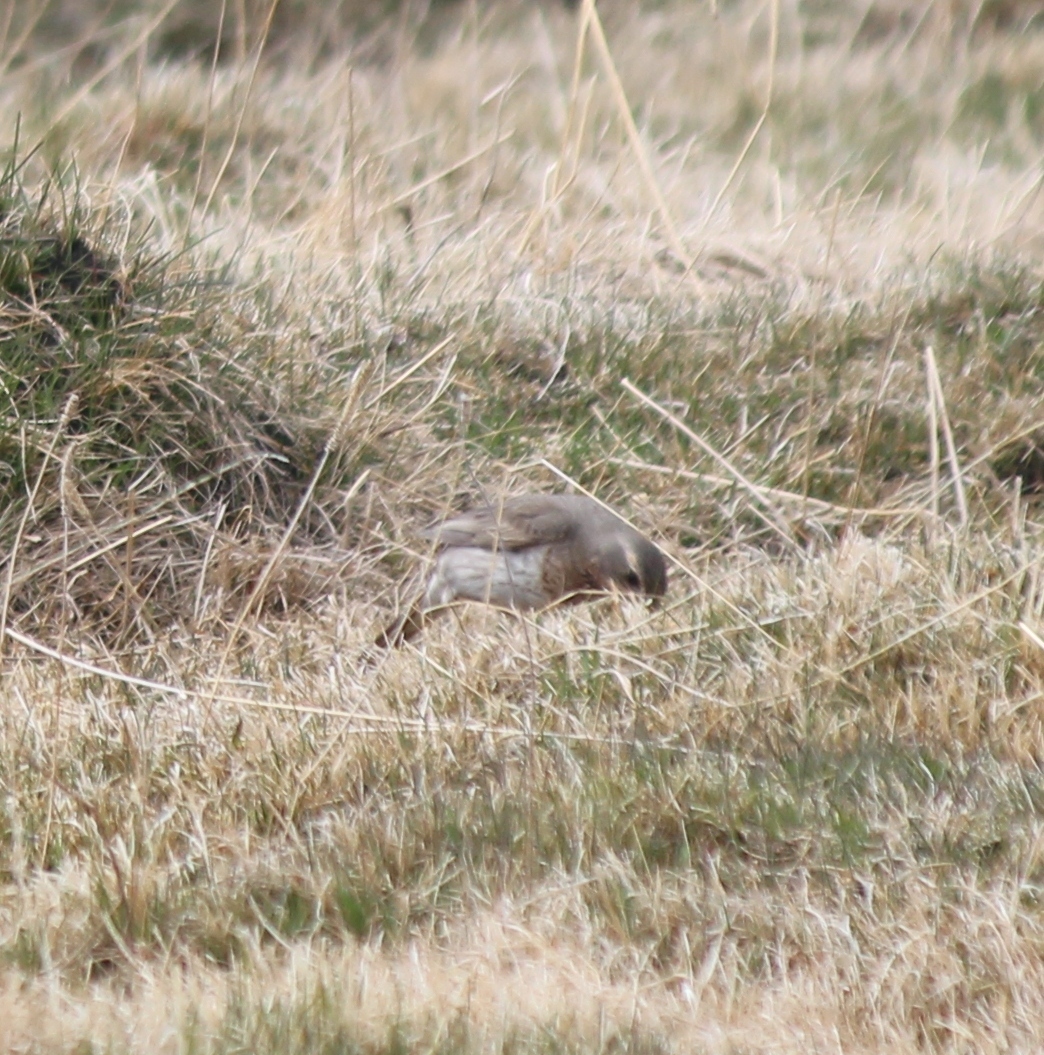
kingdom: Animalia
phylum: Chordata
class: Aves
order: Passeriformes
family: Turdidae
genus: Turdus
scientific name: Turdus ruficollis
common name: Red-throated thrush
